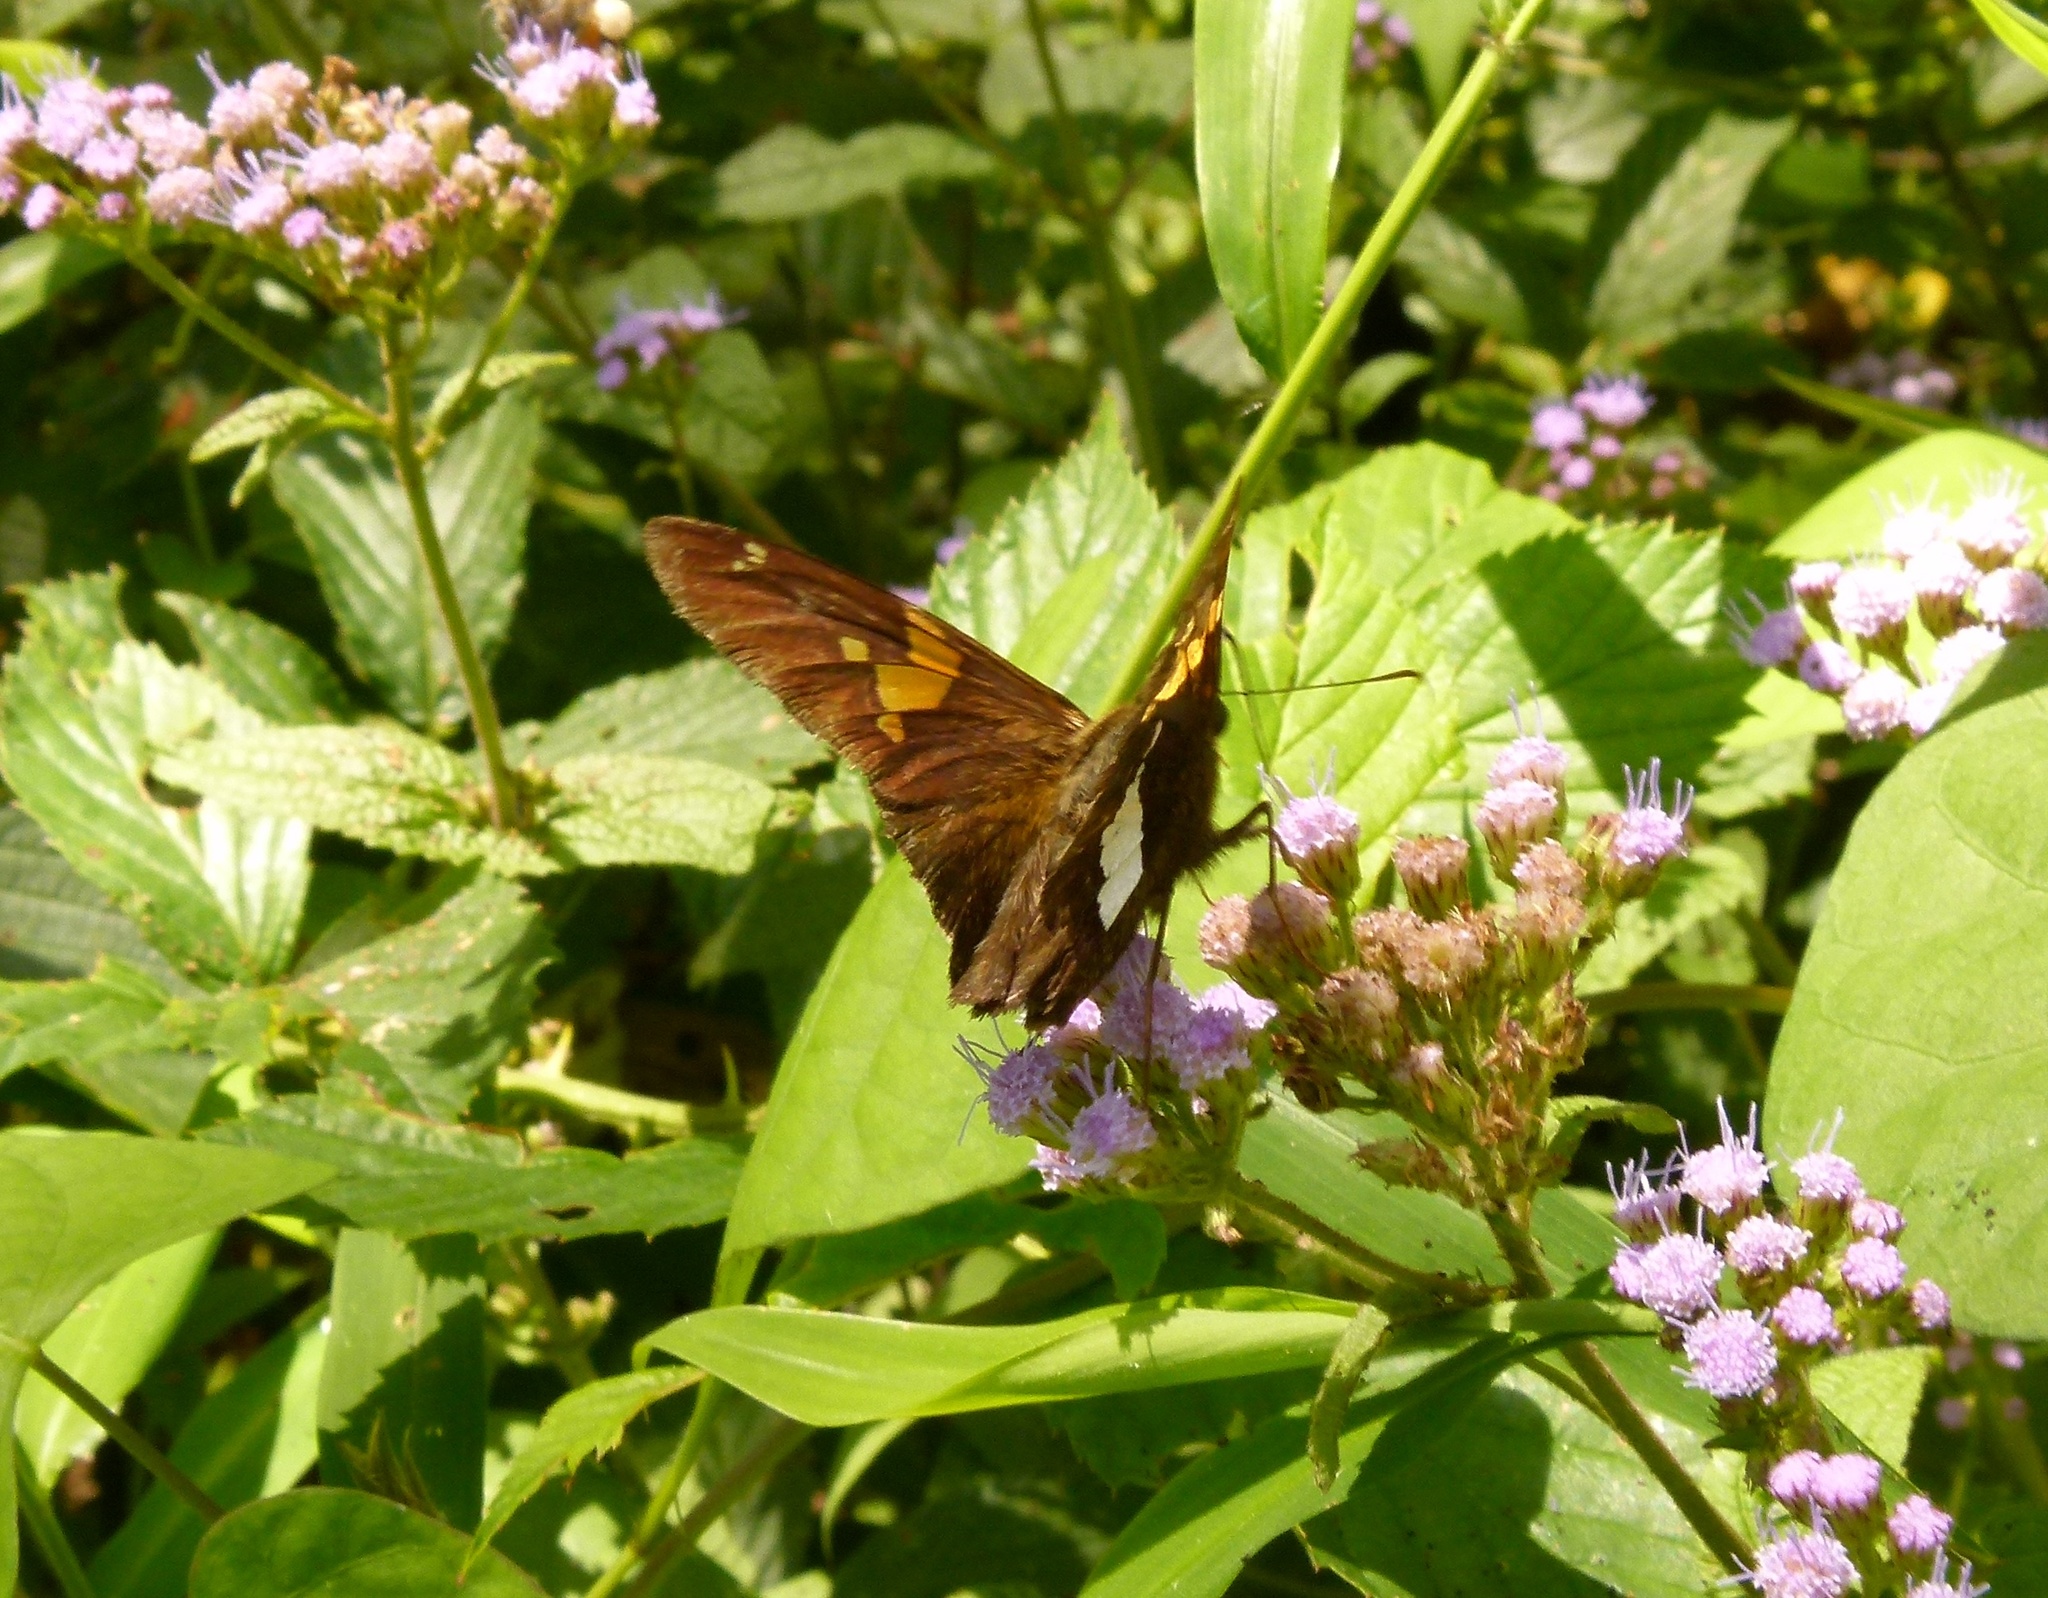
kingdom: Animalia
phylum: Arthropoda
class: Insecta
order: Lepidoptera
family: Hesperiidae
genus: Epargyreus
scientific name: Epargyreus clarus
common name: Silver-spotted skipper
